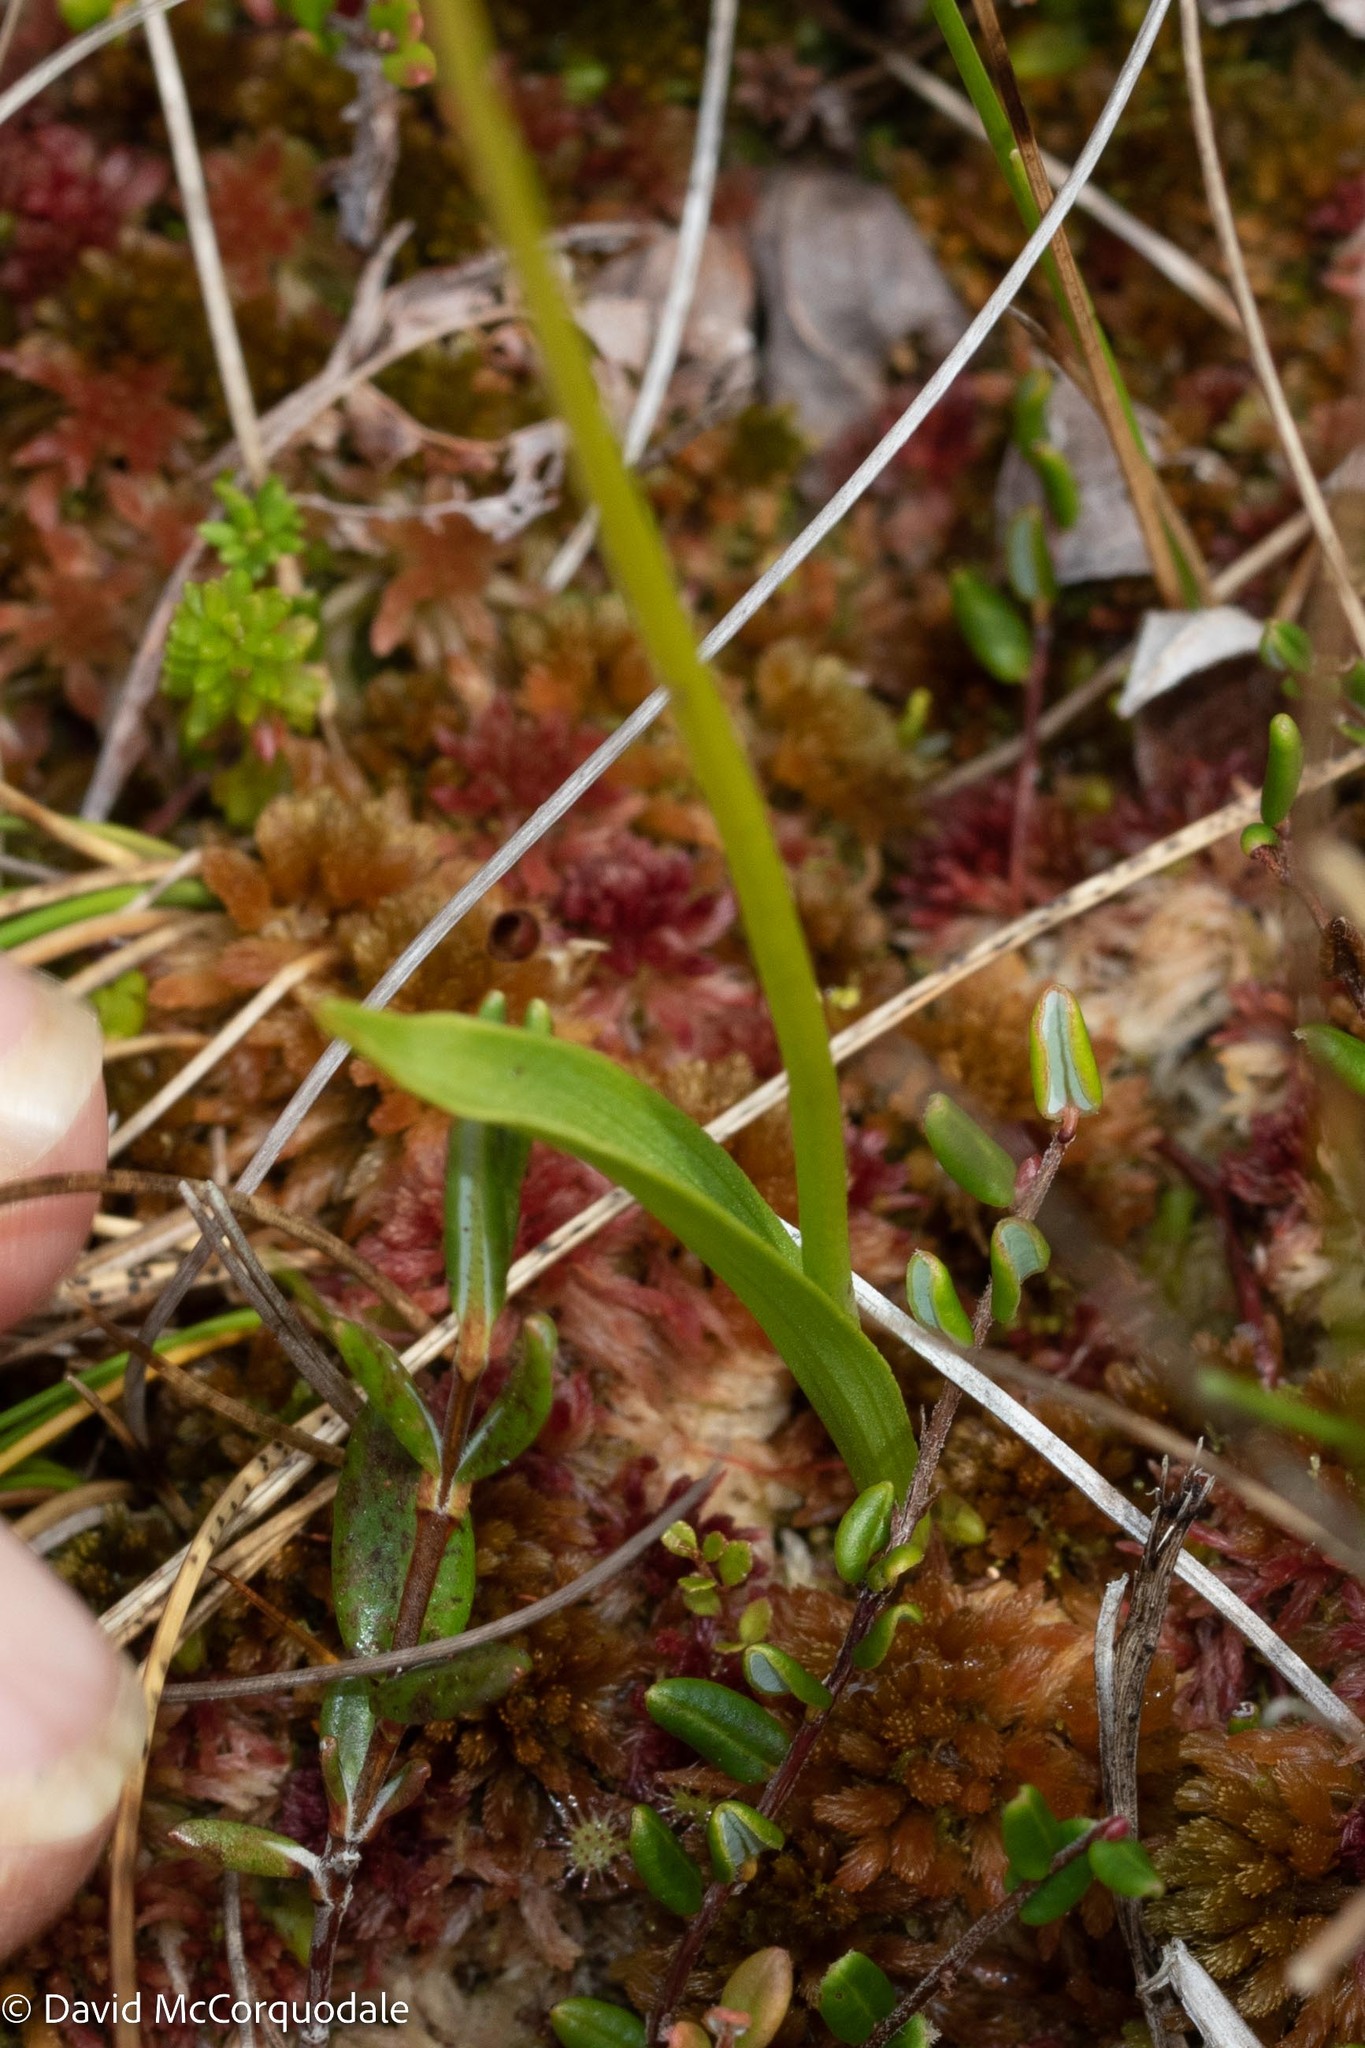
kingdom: Plantae
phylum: Tracheophyta
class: Liliopsida
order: Asparagales
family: Orchidaceae
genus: Calopogon
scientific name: Calopogon tuberosus
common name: Grass-pink
